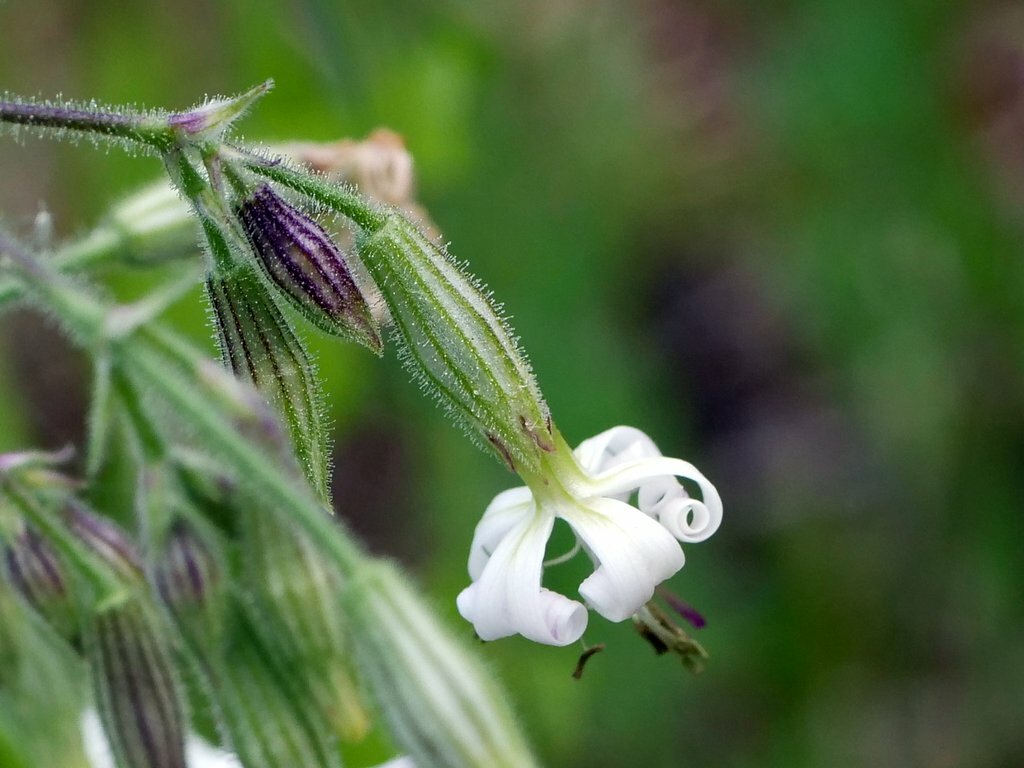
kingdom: Plantae
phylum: Tracheophyta
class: Magnoliopsida
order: Caryophyllales
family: Caryophyllaceae
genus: Silene
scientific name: Silene nutans
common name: Nottingham catchfly
